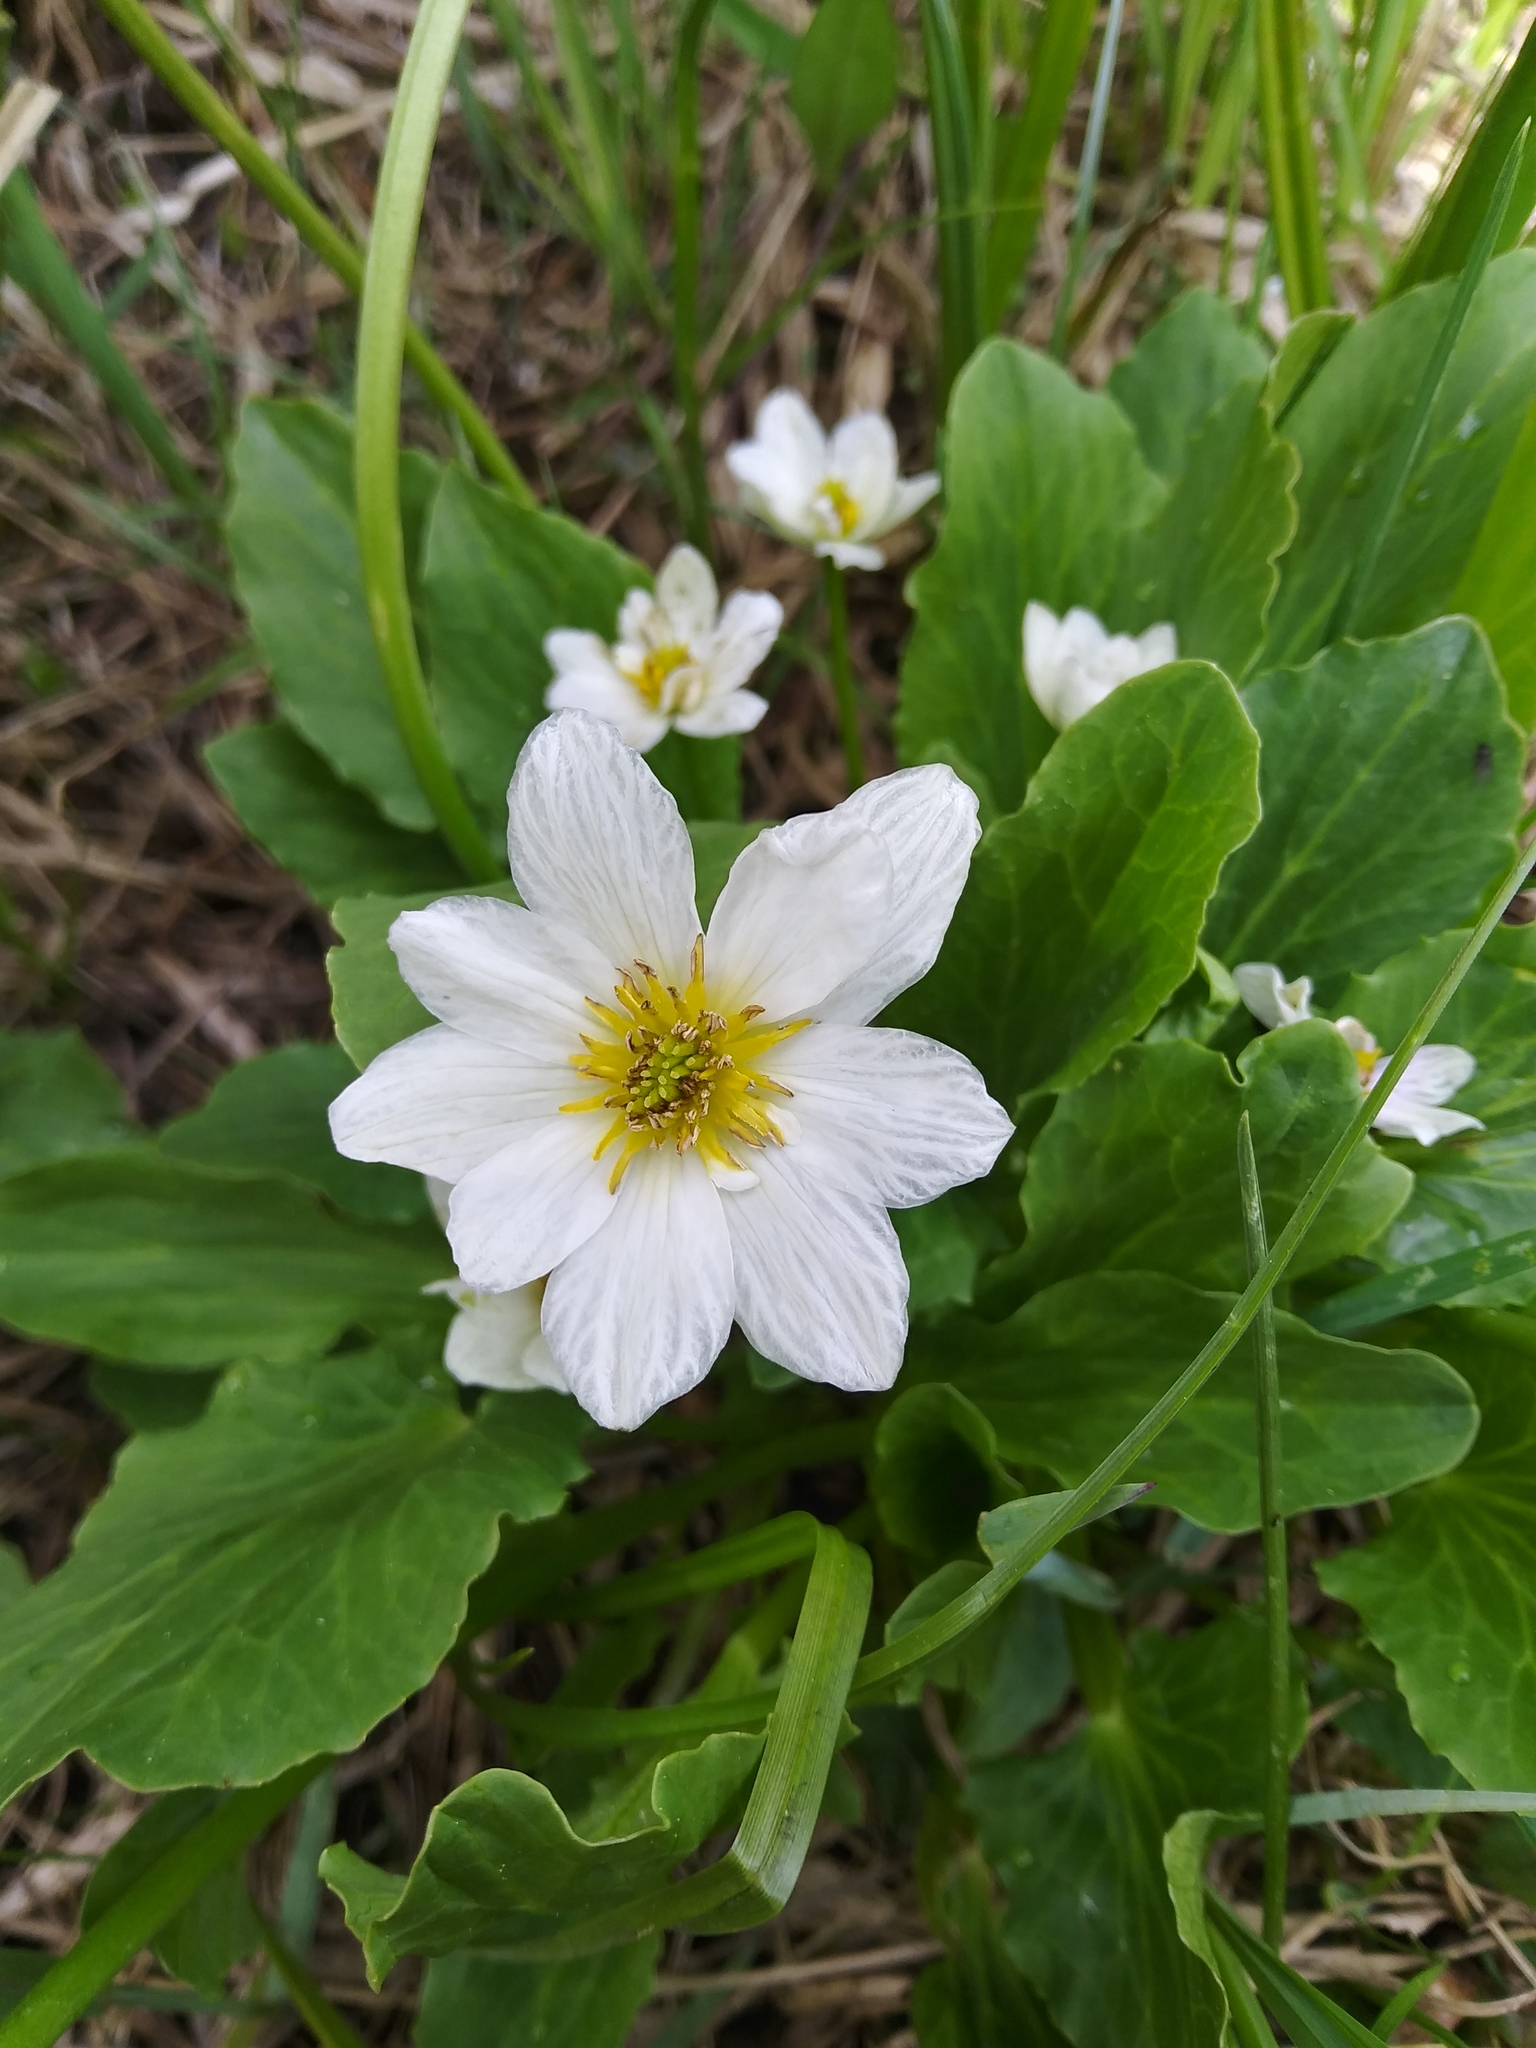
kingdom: Plantae
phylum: Tracheophyta
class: Magnoliopsida
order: Ranunculales
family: Ranunculaceae
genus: Caltha
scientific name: Caltha leptosepala
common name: Elkslip
